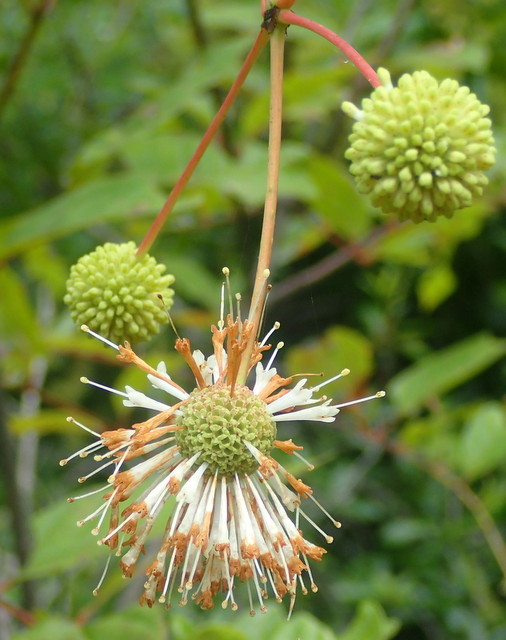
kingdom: Plantae
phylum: Tracheophyta
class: Magnoliopsida
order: Gentianales
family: Rubiaceae
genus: Cephalanthus
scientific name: Cephalanthus occidentalis
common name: Button-willow
